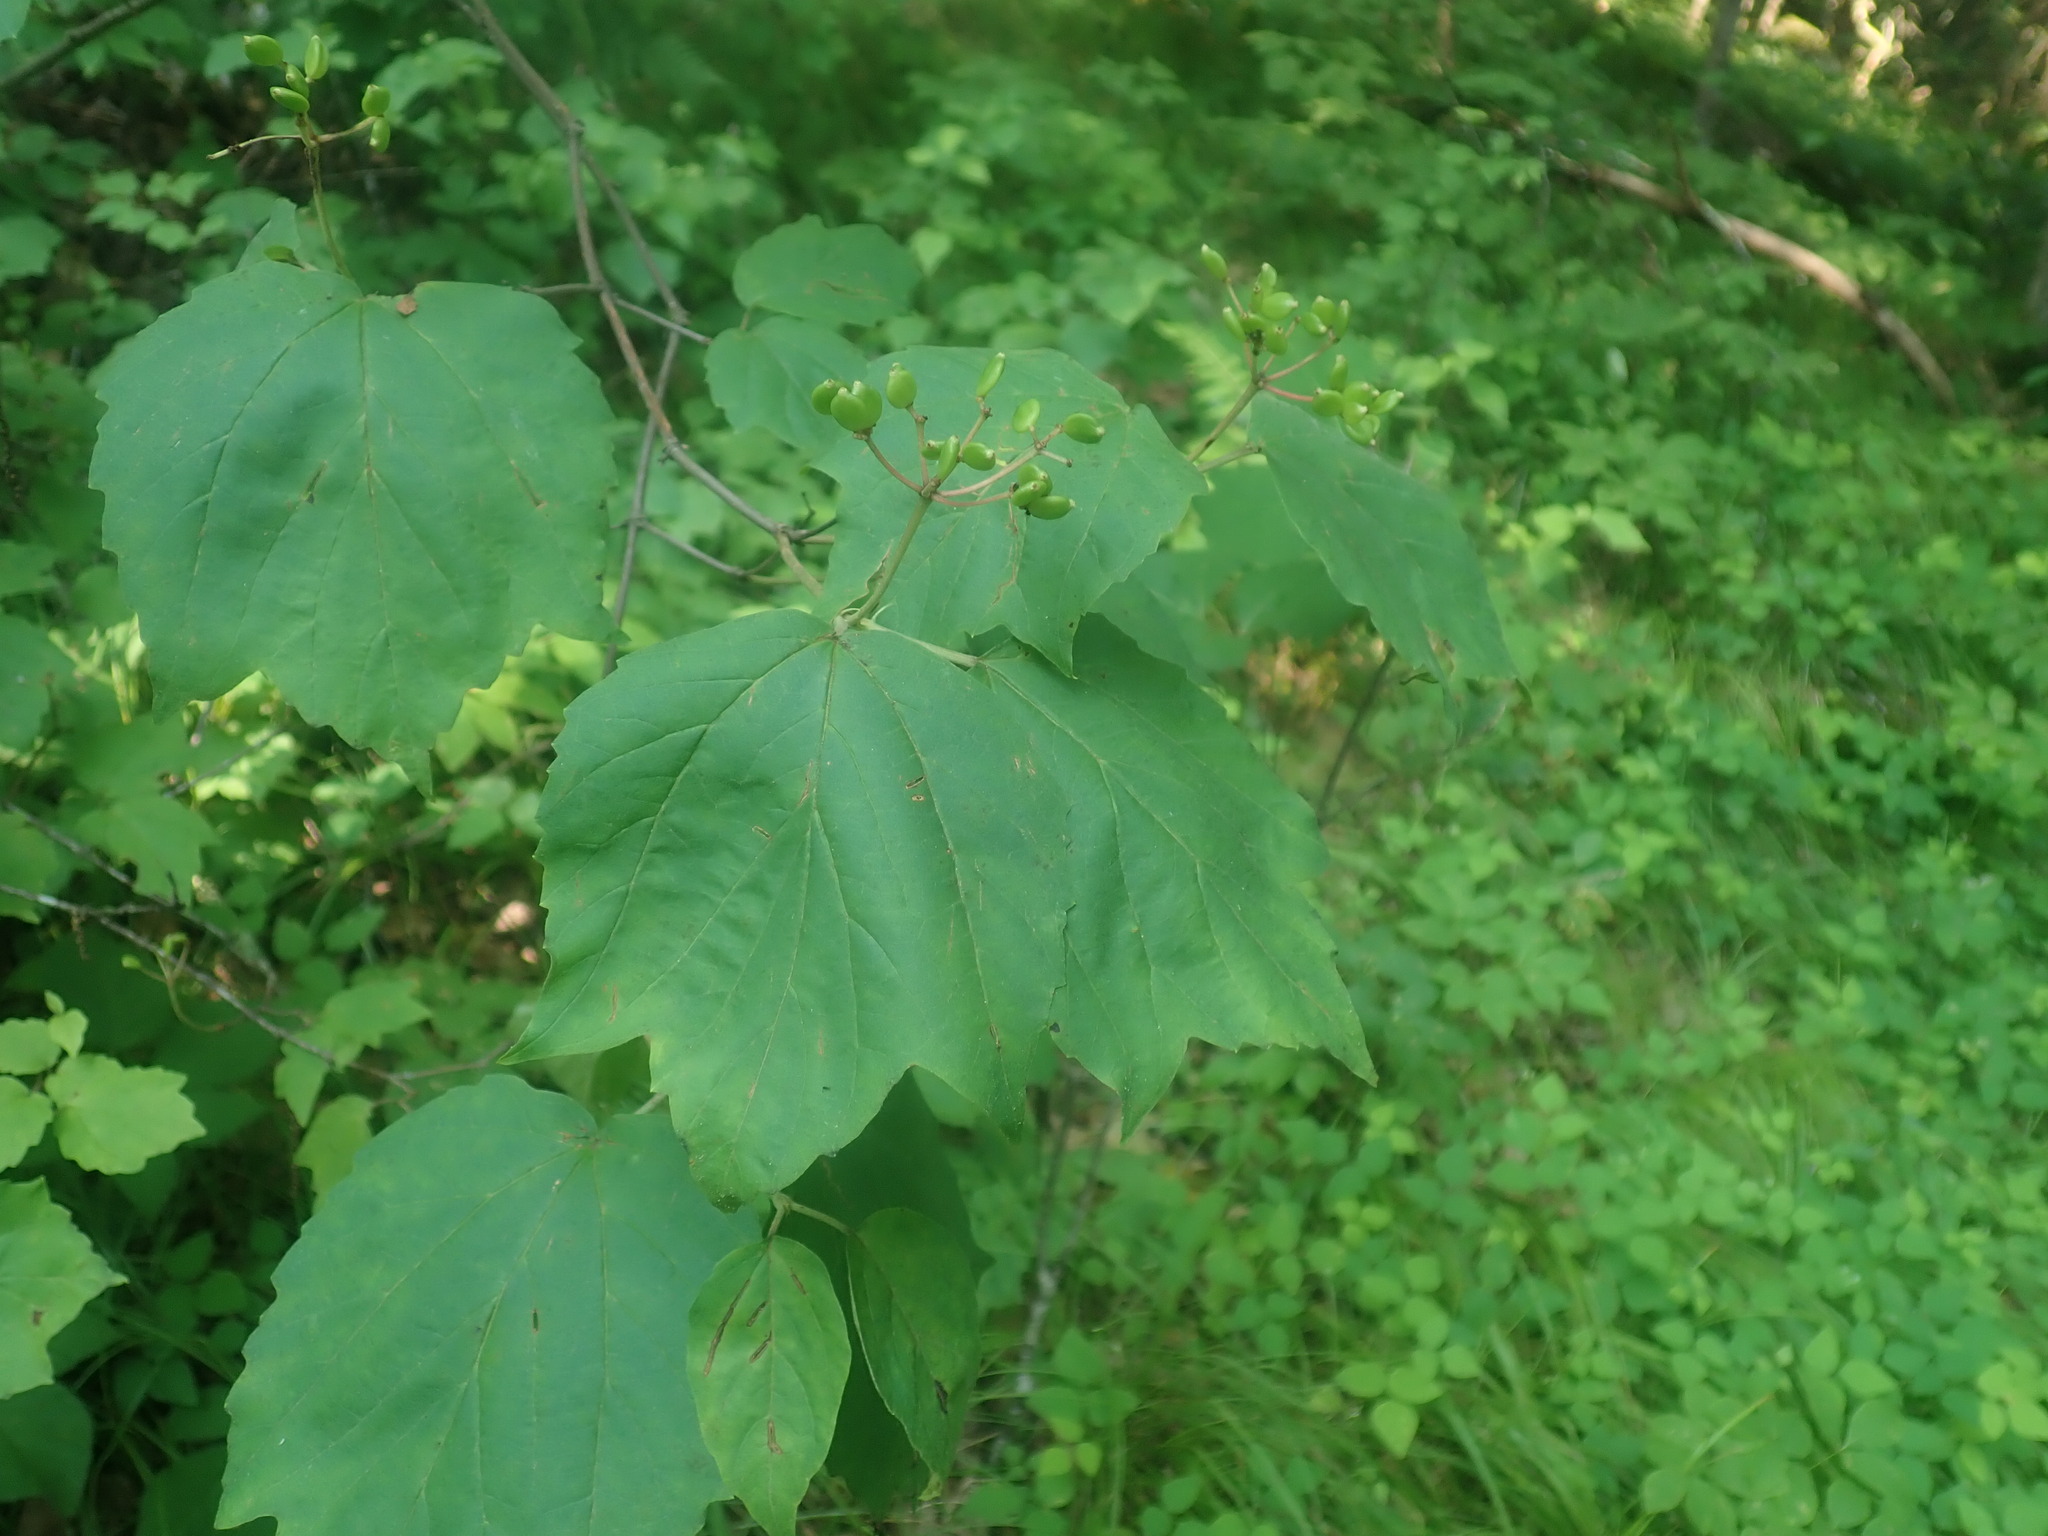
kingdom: Plantae
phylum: Tracheophyta
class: Magnoliopsida
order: Dipsacales
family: Viburnaceae
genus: Viburnum
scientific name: Viburnum acerifolium
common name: Dockmackie
